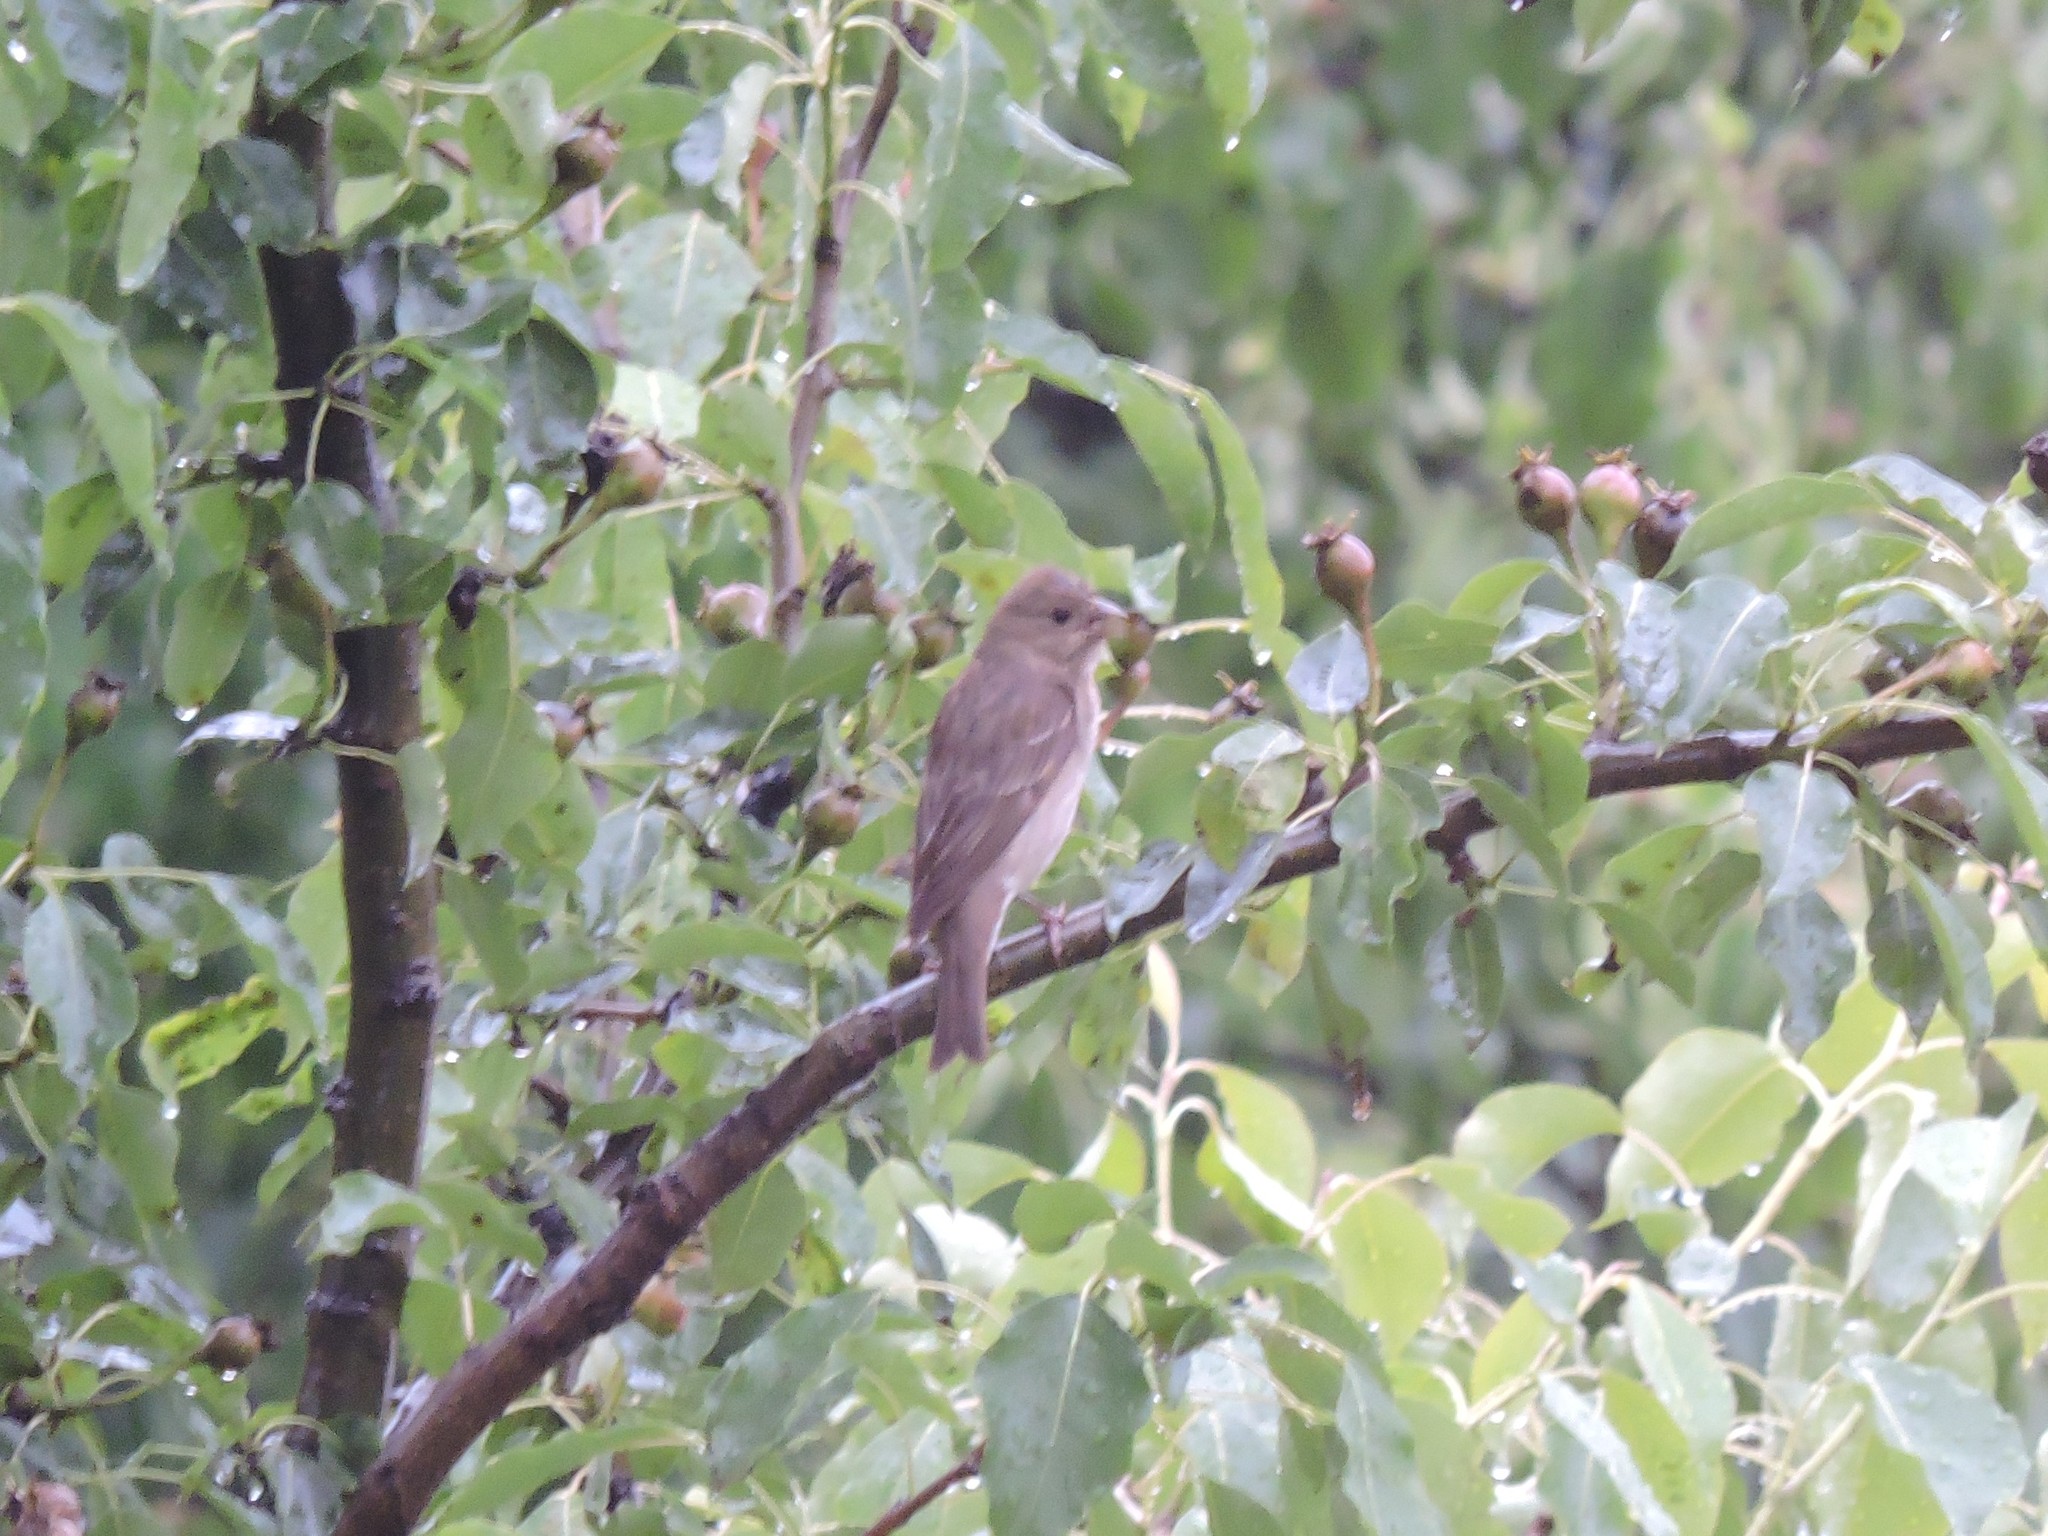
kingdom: Animalia
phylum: Chordata
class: Aves
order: Passeriformes
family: Fringillidae
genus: Carpodacus
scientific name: Carpodacus erythrinus
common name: Common rosefinch
